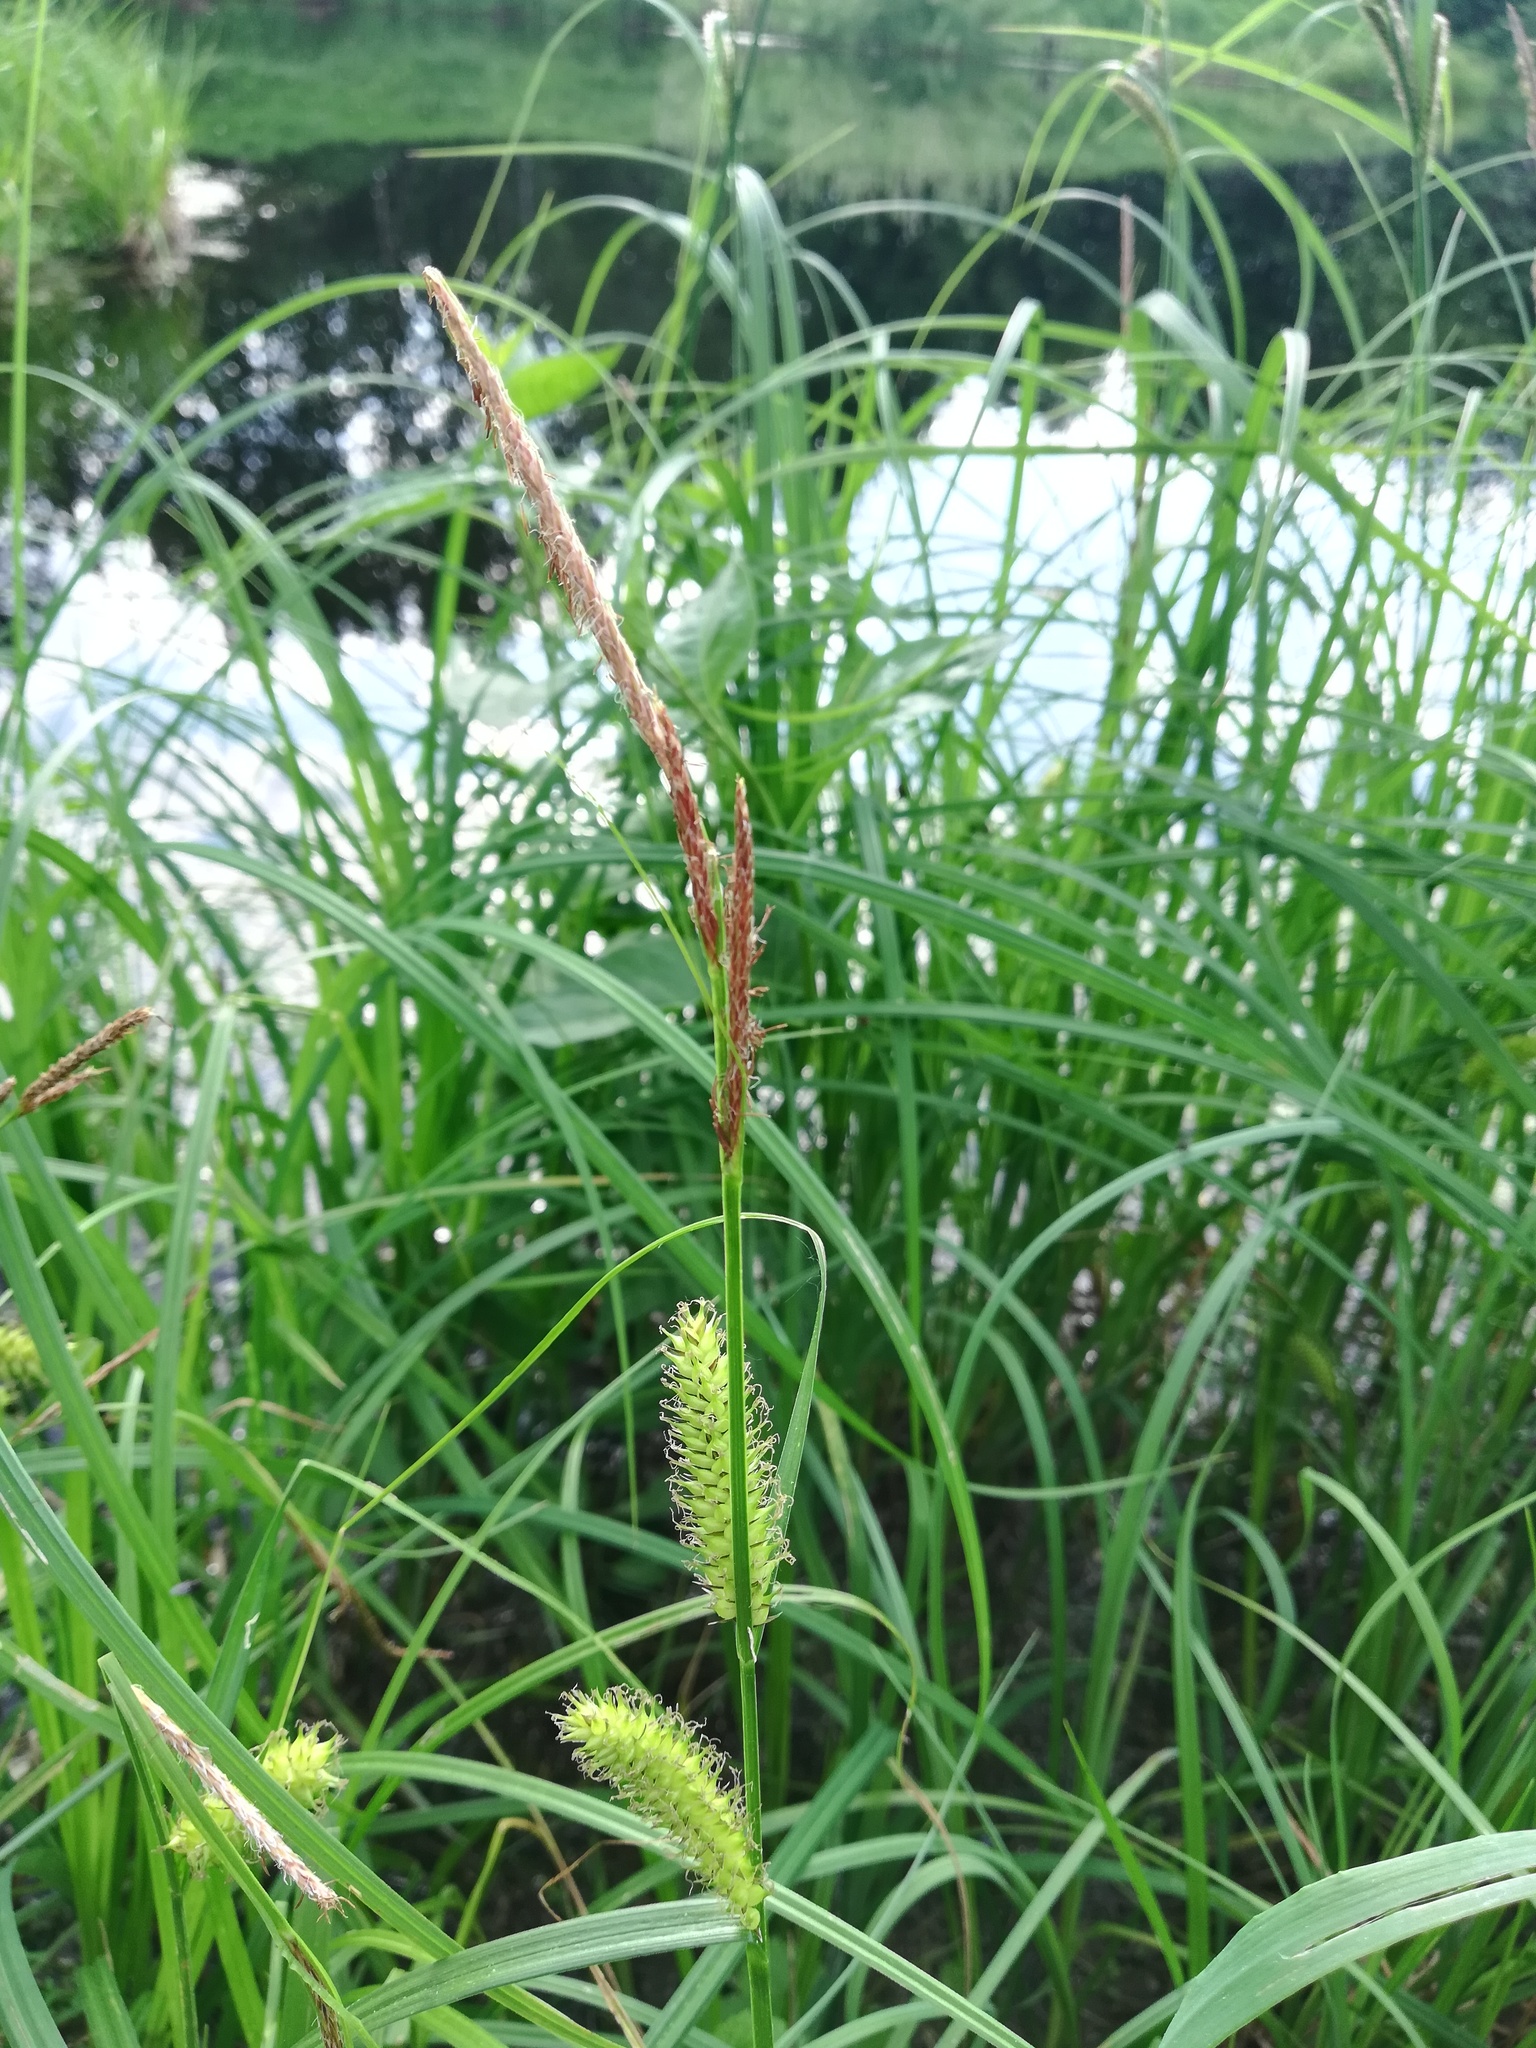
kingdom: Plantae
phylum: Tracheophyta
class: Liliopsida
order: Poales
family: Cyperaceae
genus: Carex
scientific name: Carex vesicaria
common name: Bladder-sedge
